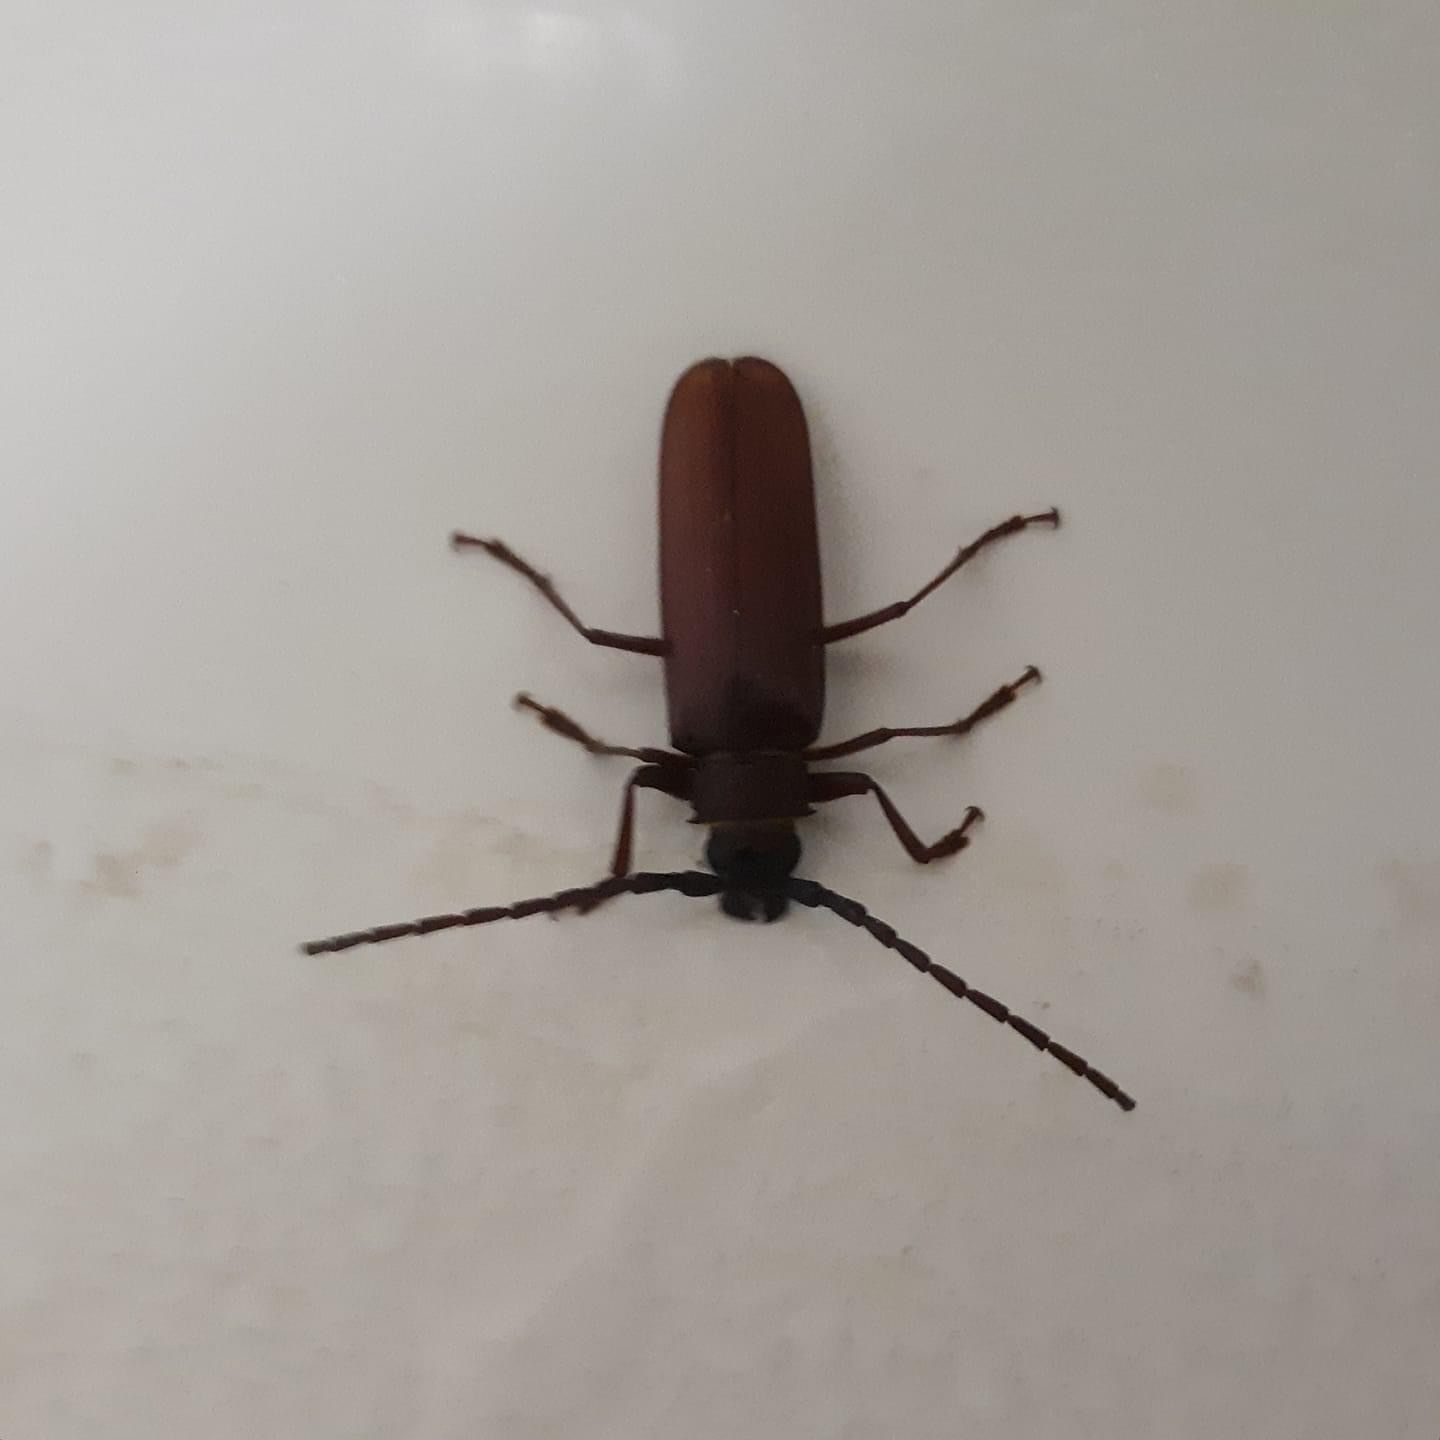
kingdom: Animalia
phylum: Arthropoda
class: Insecta
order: Coleoptera
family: Cerambycidae
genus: Orthosoma
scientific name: Orthosoma brunneum
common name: Brown prionid beetle
